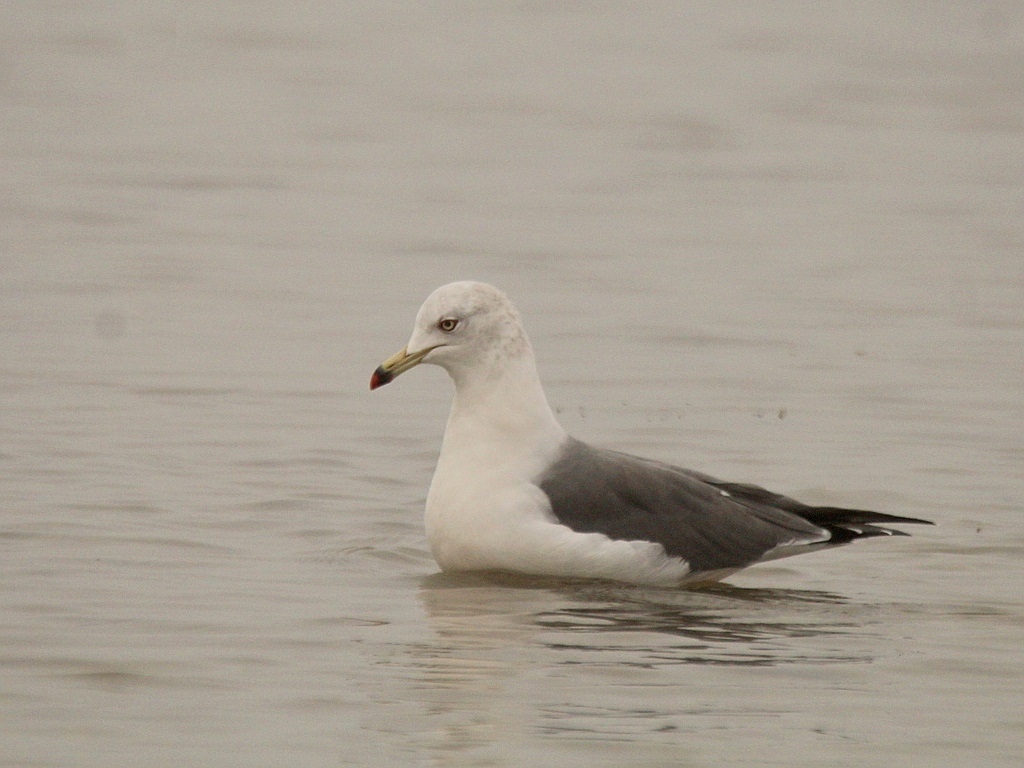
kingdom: Animalia
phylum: Chordata
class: Aves
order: Charadriiformes
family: Laridae
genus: Larus
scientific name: Larus crassirostris
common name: Black-tailed gull
